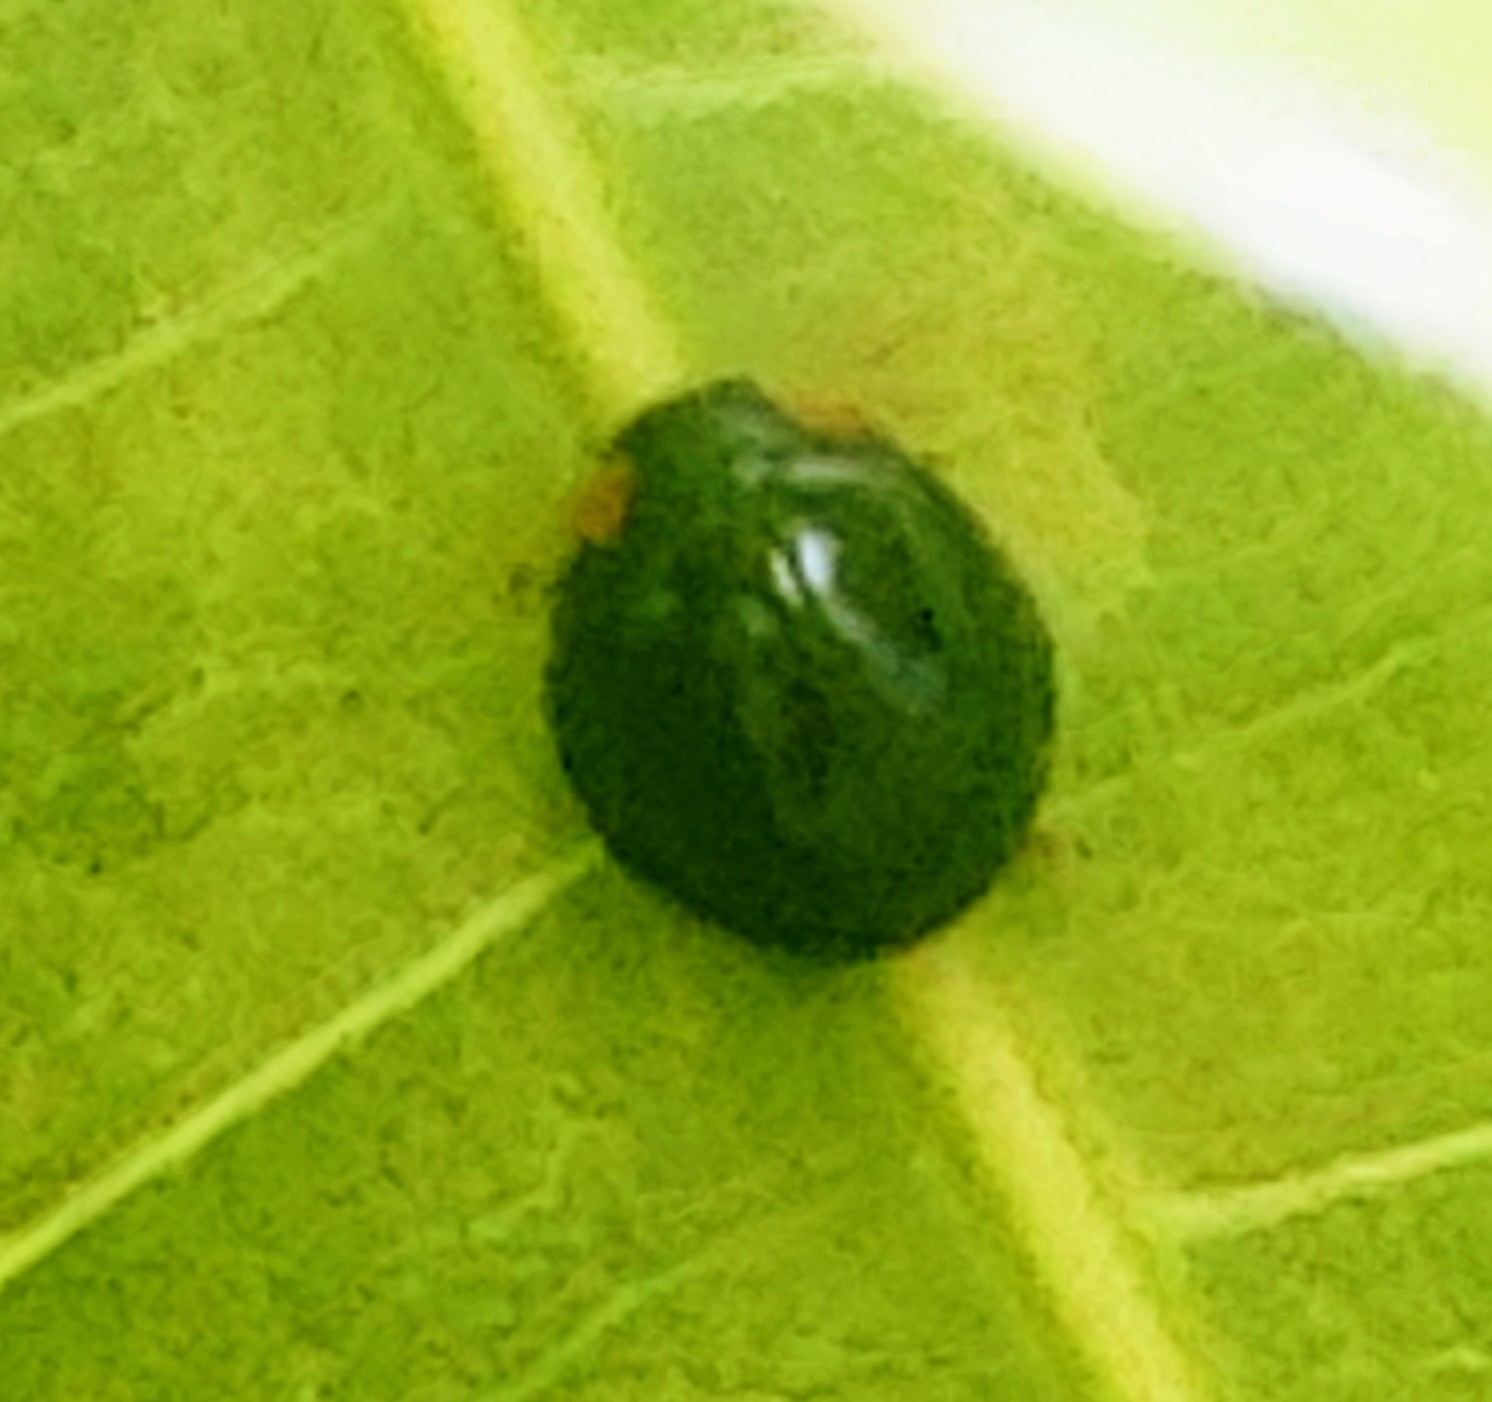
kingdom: Animalia
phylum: Arthropoda
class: Insecta
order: Coleoptera
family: Coccinellidae
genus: Curinus
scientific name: Curinus coeruleus
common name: Ladybird beetle
